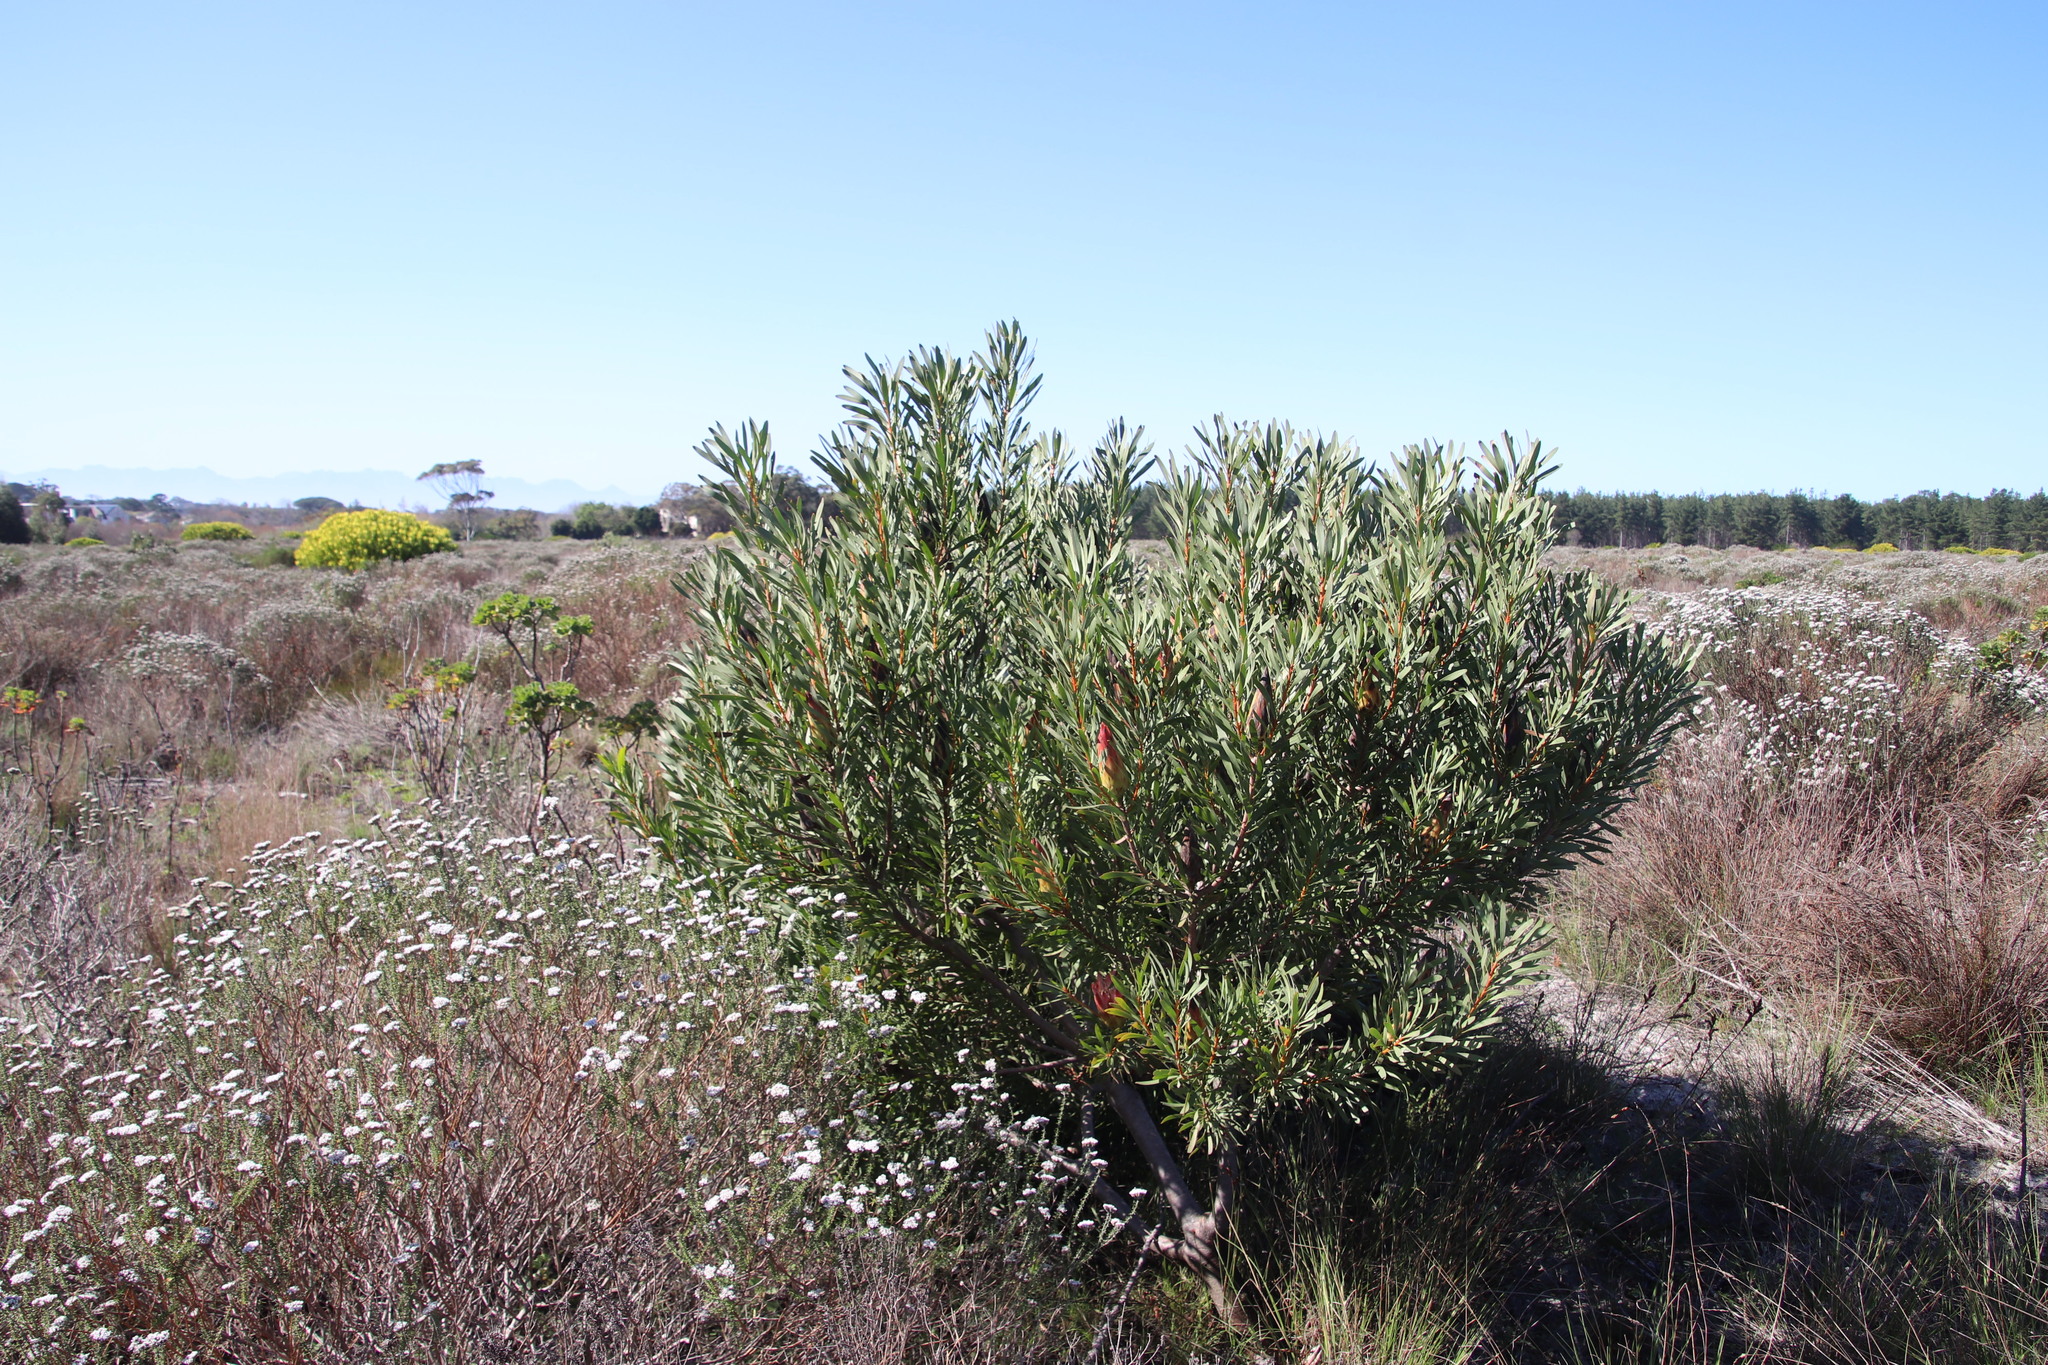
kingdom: Plantae
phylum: Tracheophyta
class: Magnoliopsida
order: Proteales
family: Proteaceae
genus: Protea
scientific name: Protea repens
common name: Sugarbush
